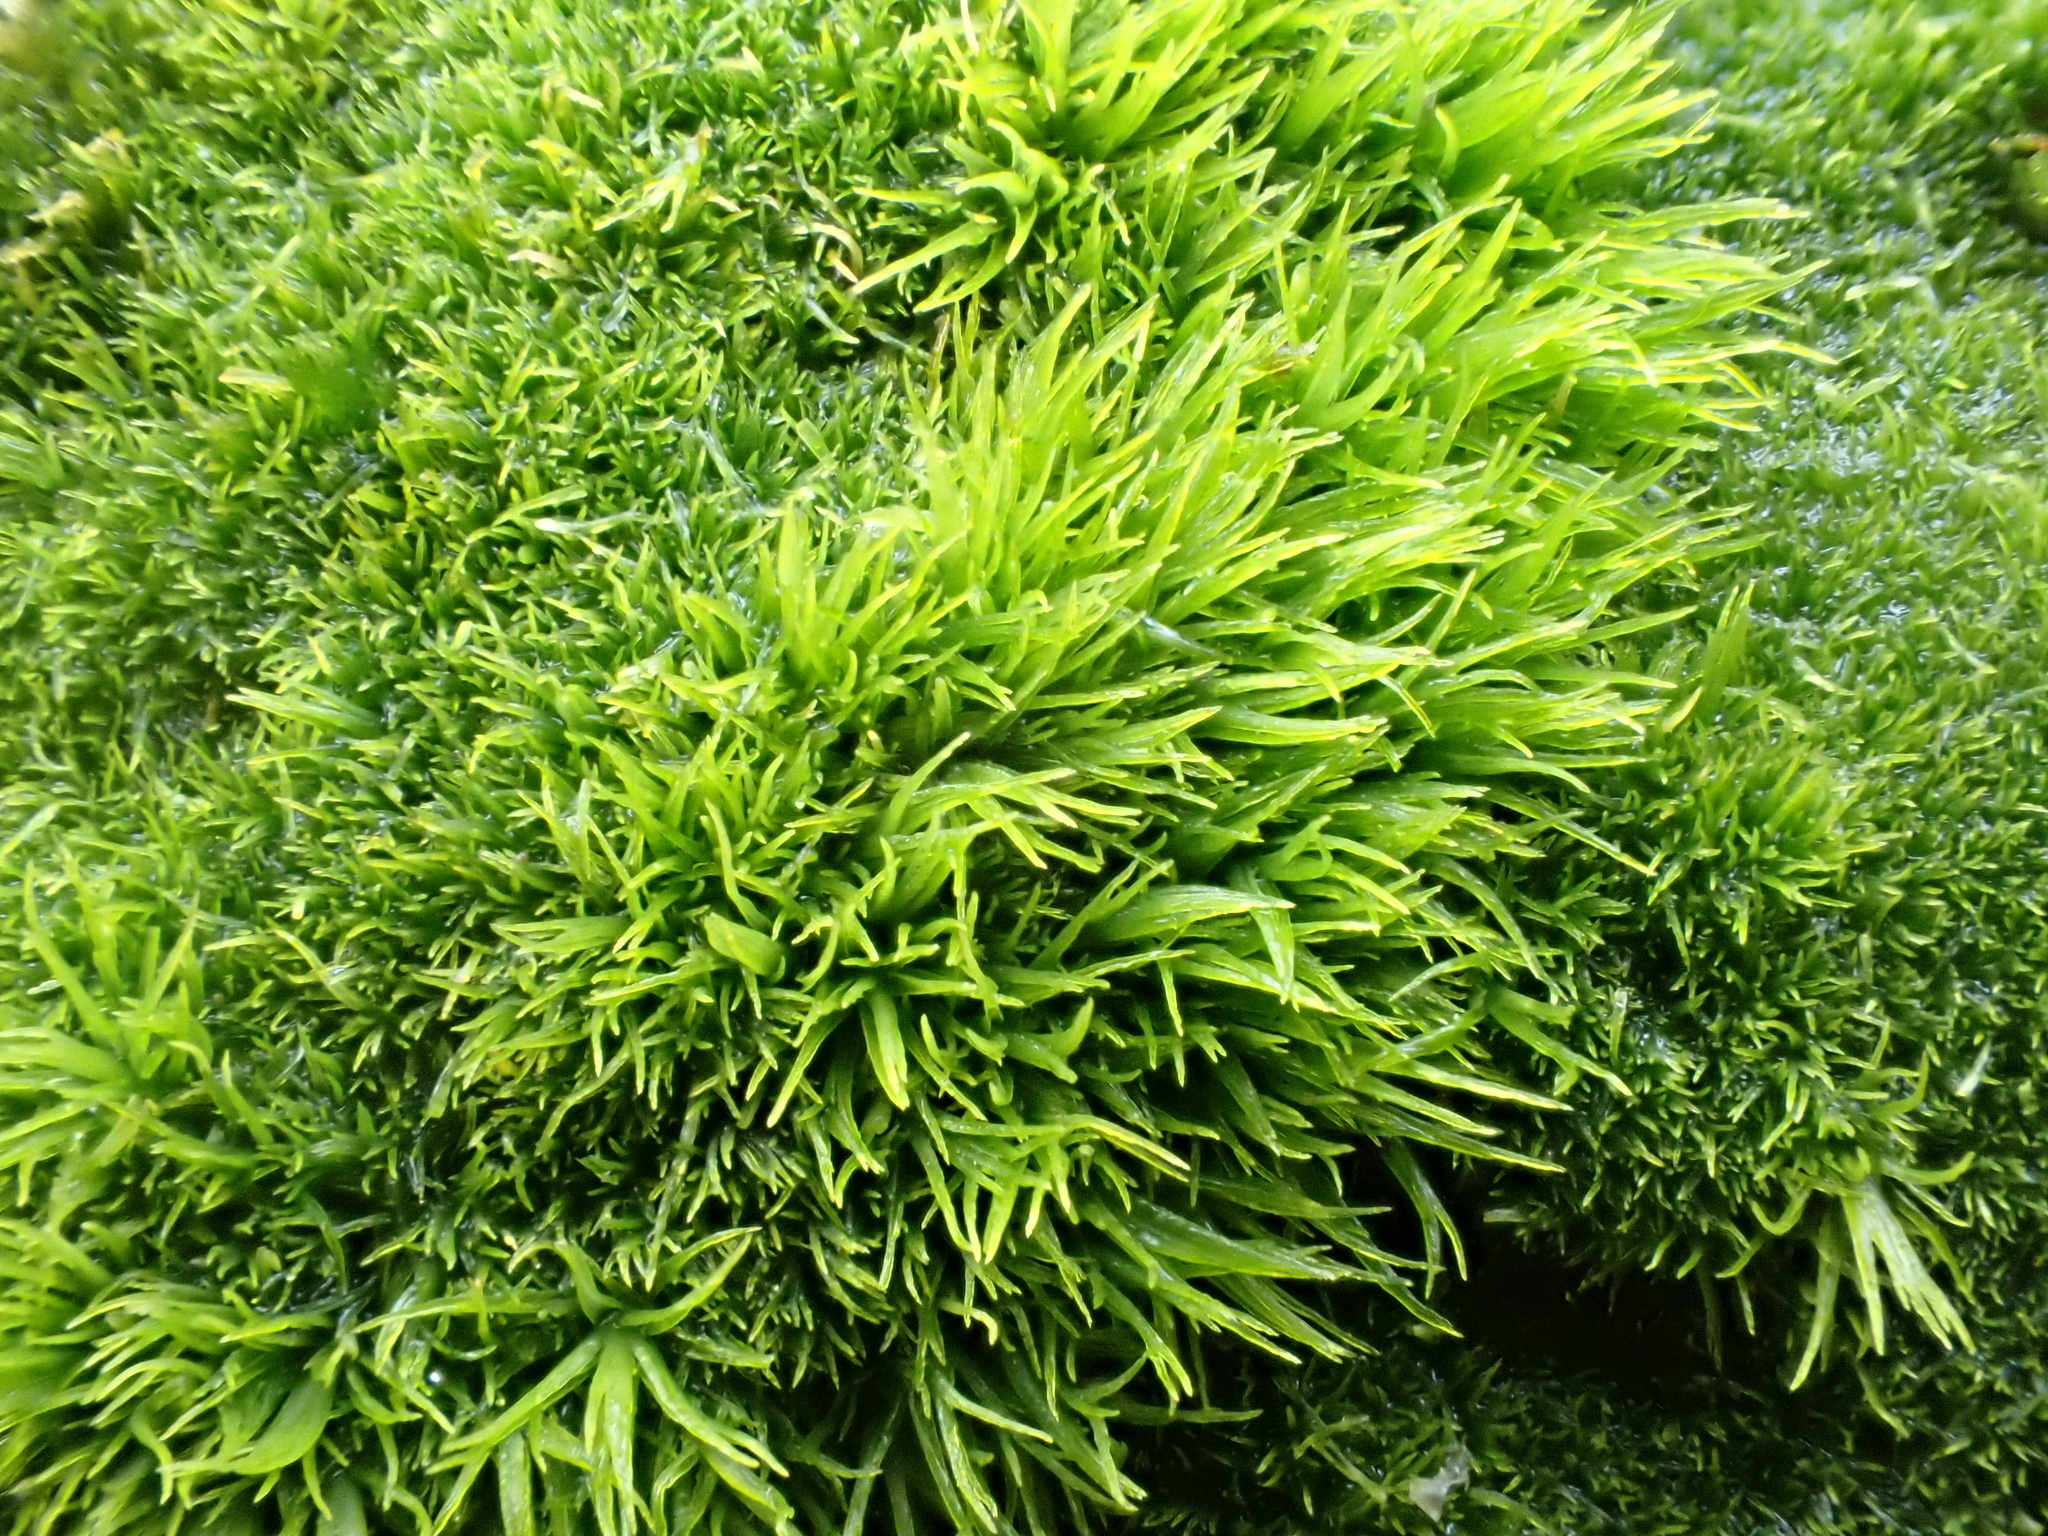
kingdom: Plantae
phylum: Bryophyta
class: Bryopsida
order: Dicranales
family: Dicranaceae
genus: Orthodicranum
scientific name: Orthodicranum montanum
